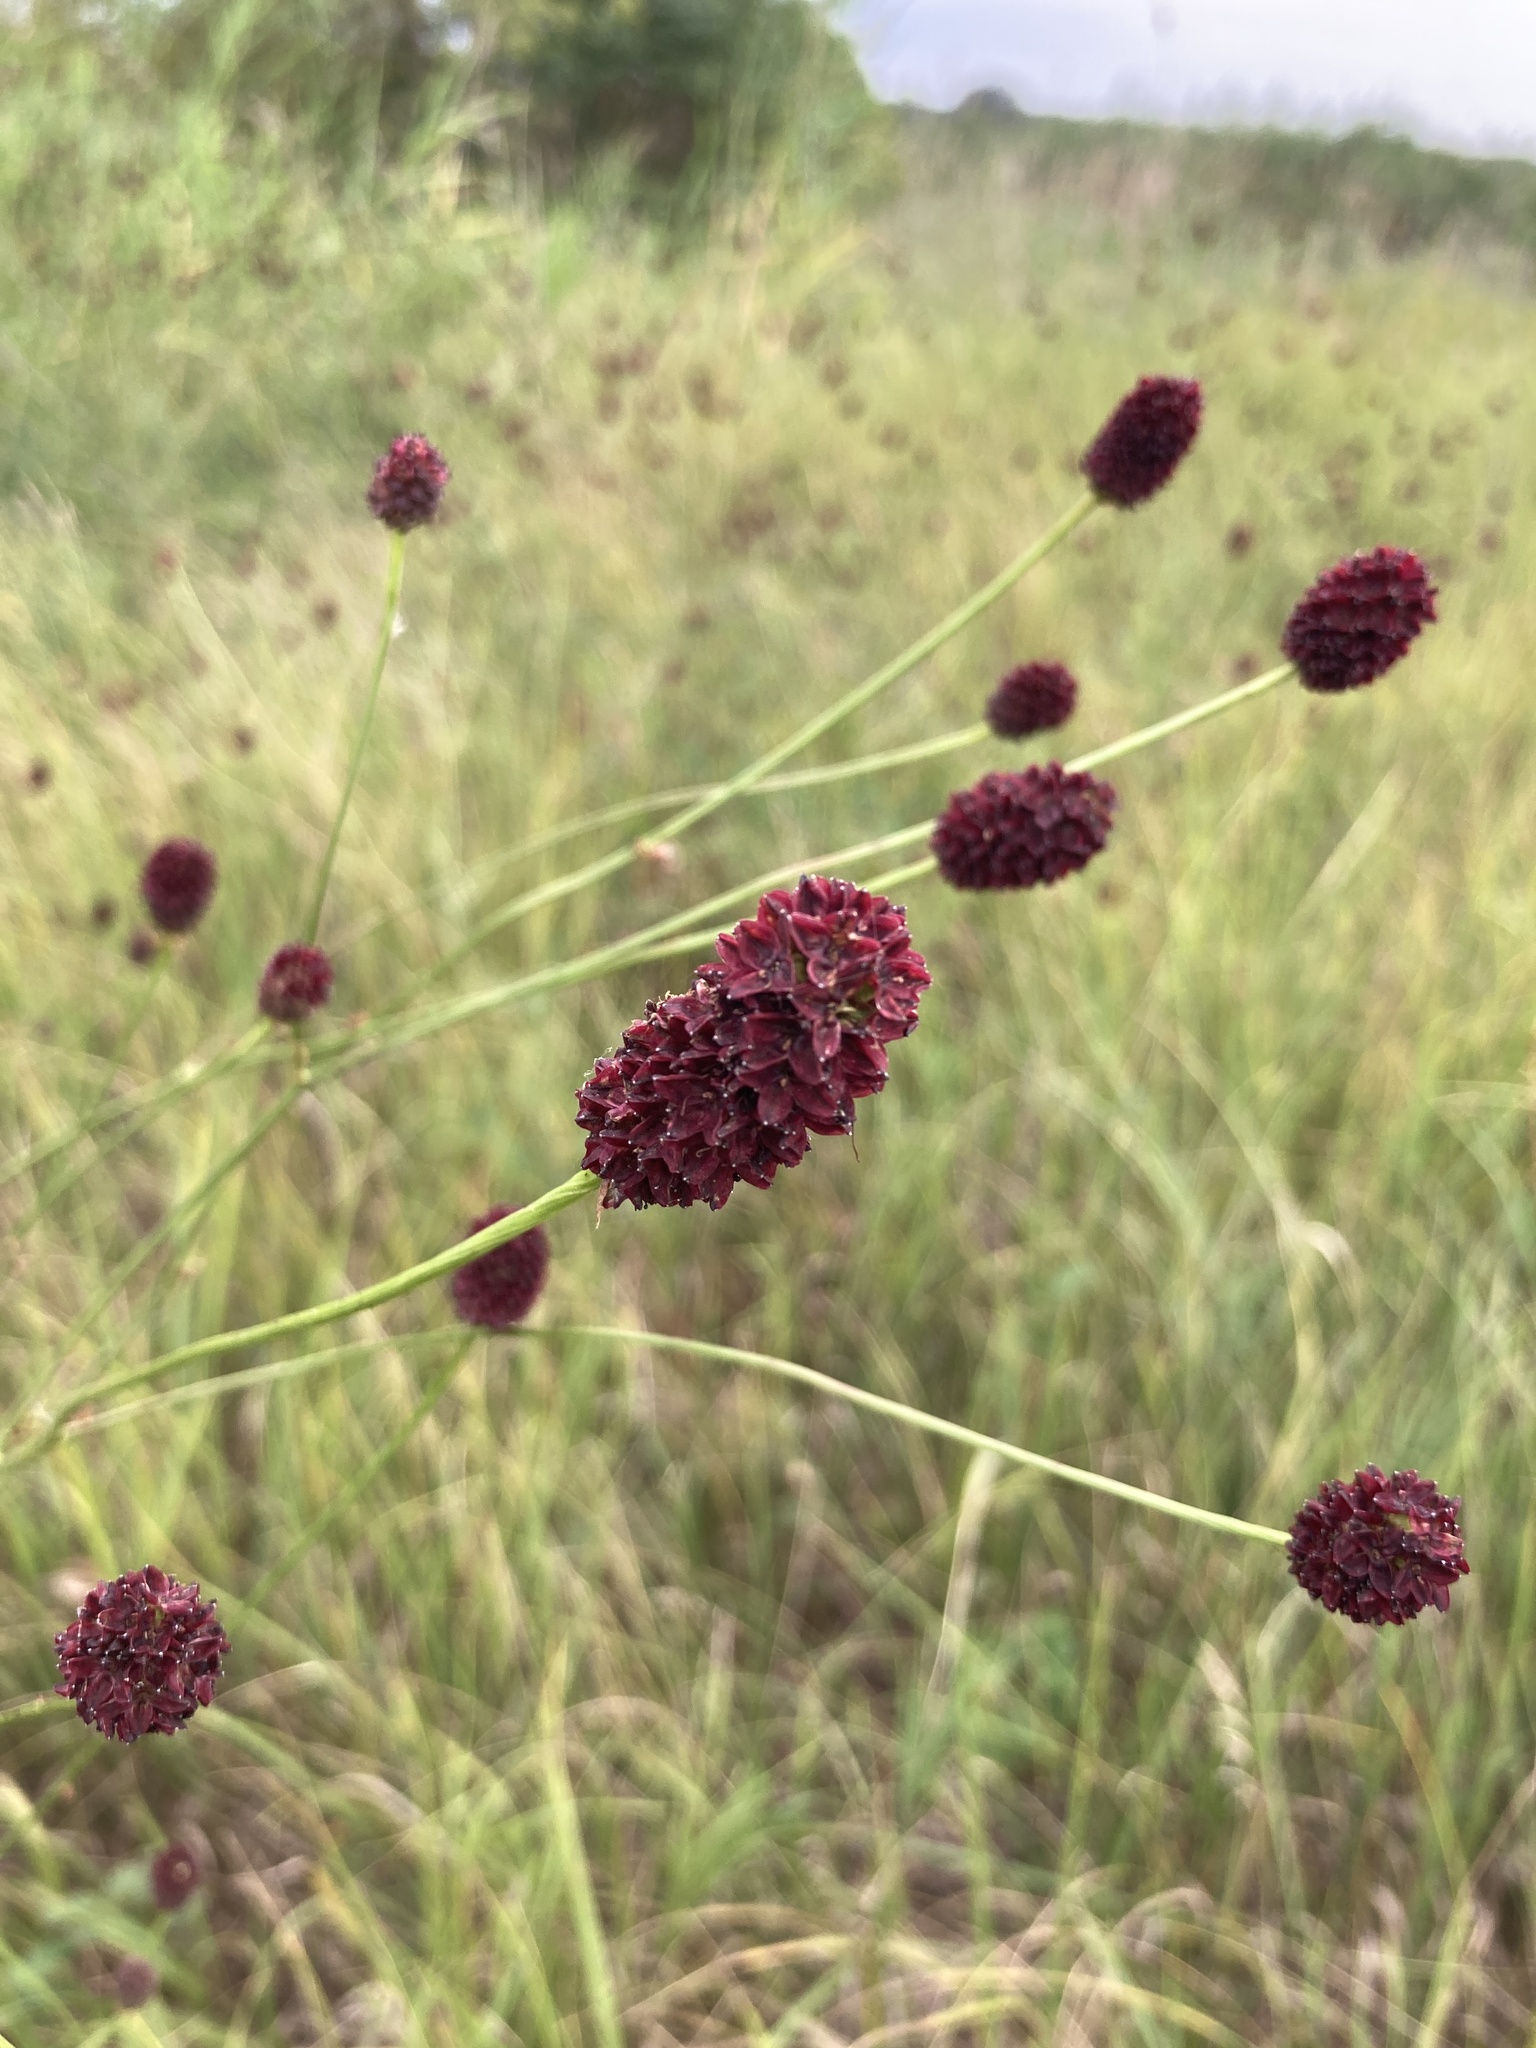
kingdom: Plantae
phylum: Tracheophyta
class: Magnoliopsida
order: Rosales
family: Rosaceae
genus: Sanguisorba
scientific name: Sanguisorba officinalis
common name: Great burnet
